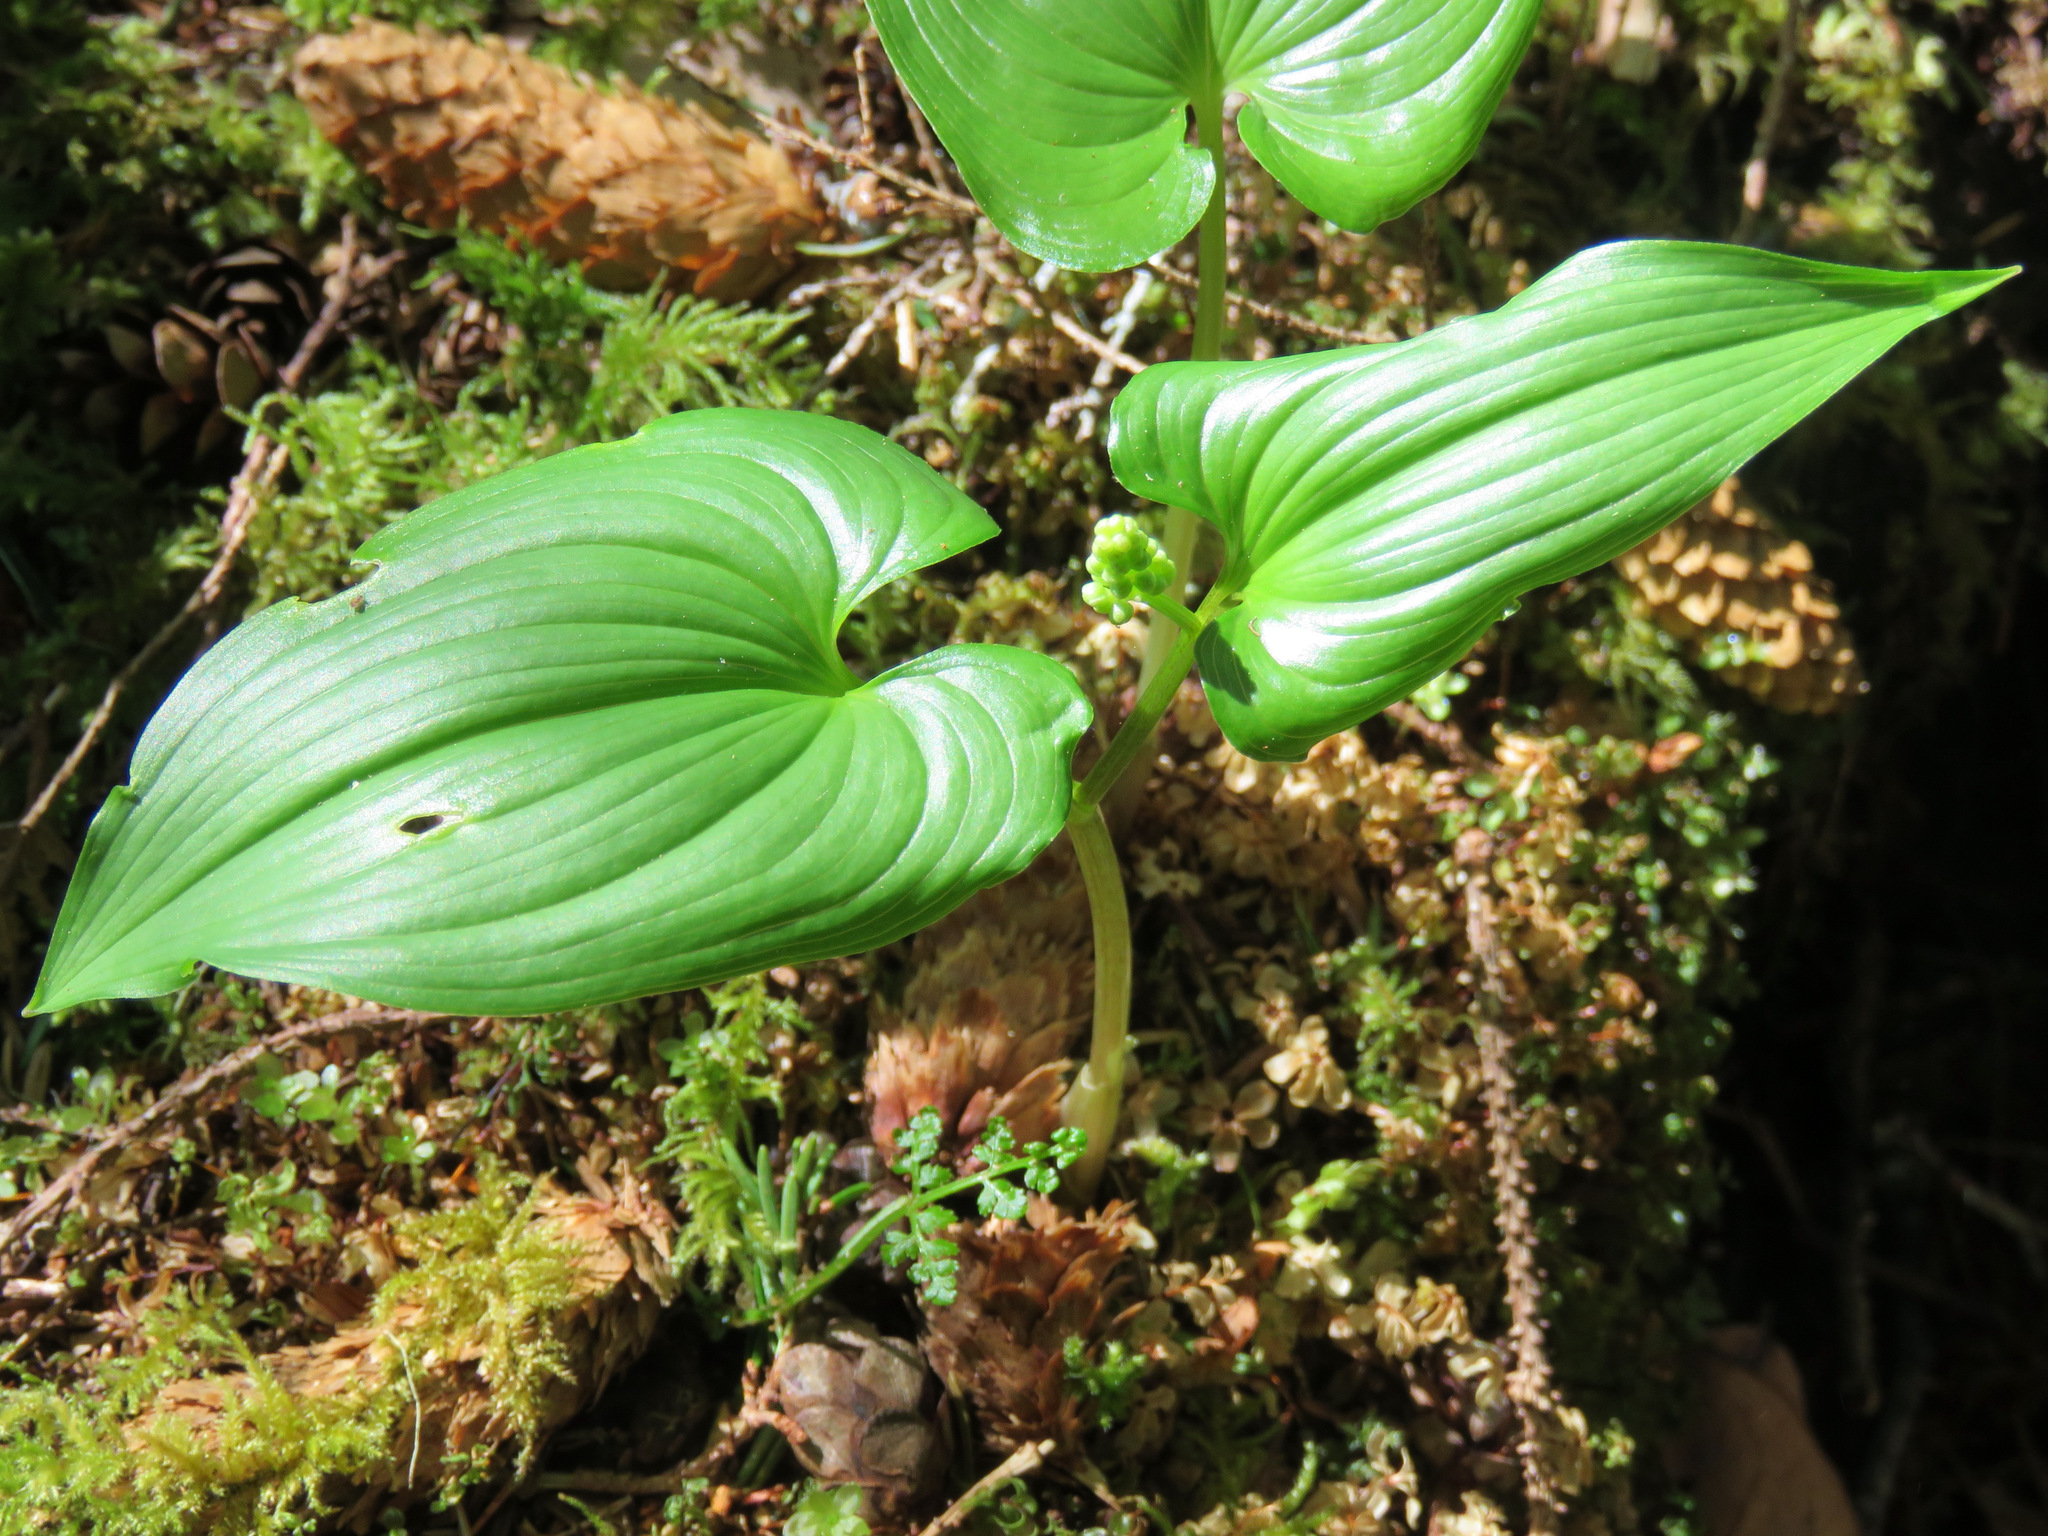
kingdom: Plantae
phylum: Tracheophyta
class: Liliopsida
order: Asparagales
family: Asparagaceae
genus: Maianthemum
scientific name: Maianthemum dilatatum
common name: False lily-of-the-valley
